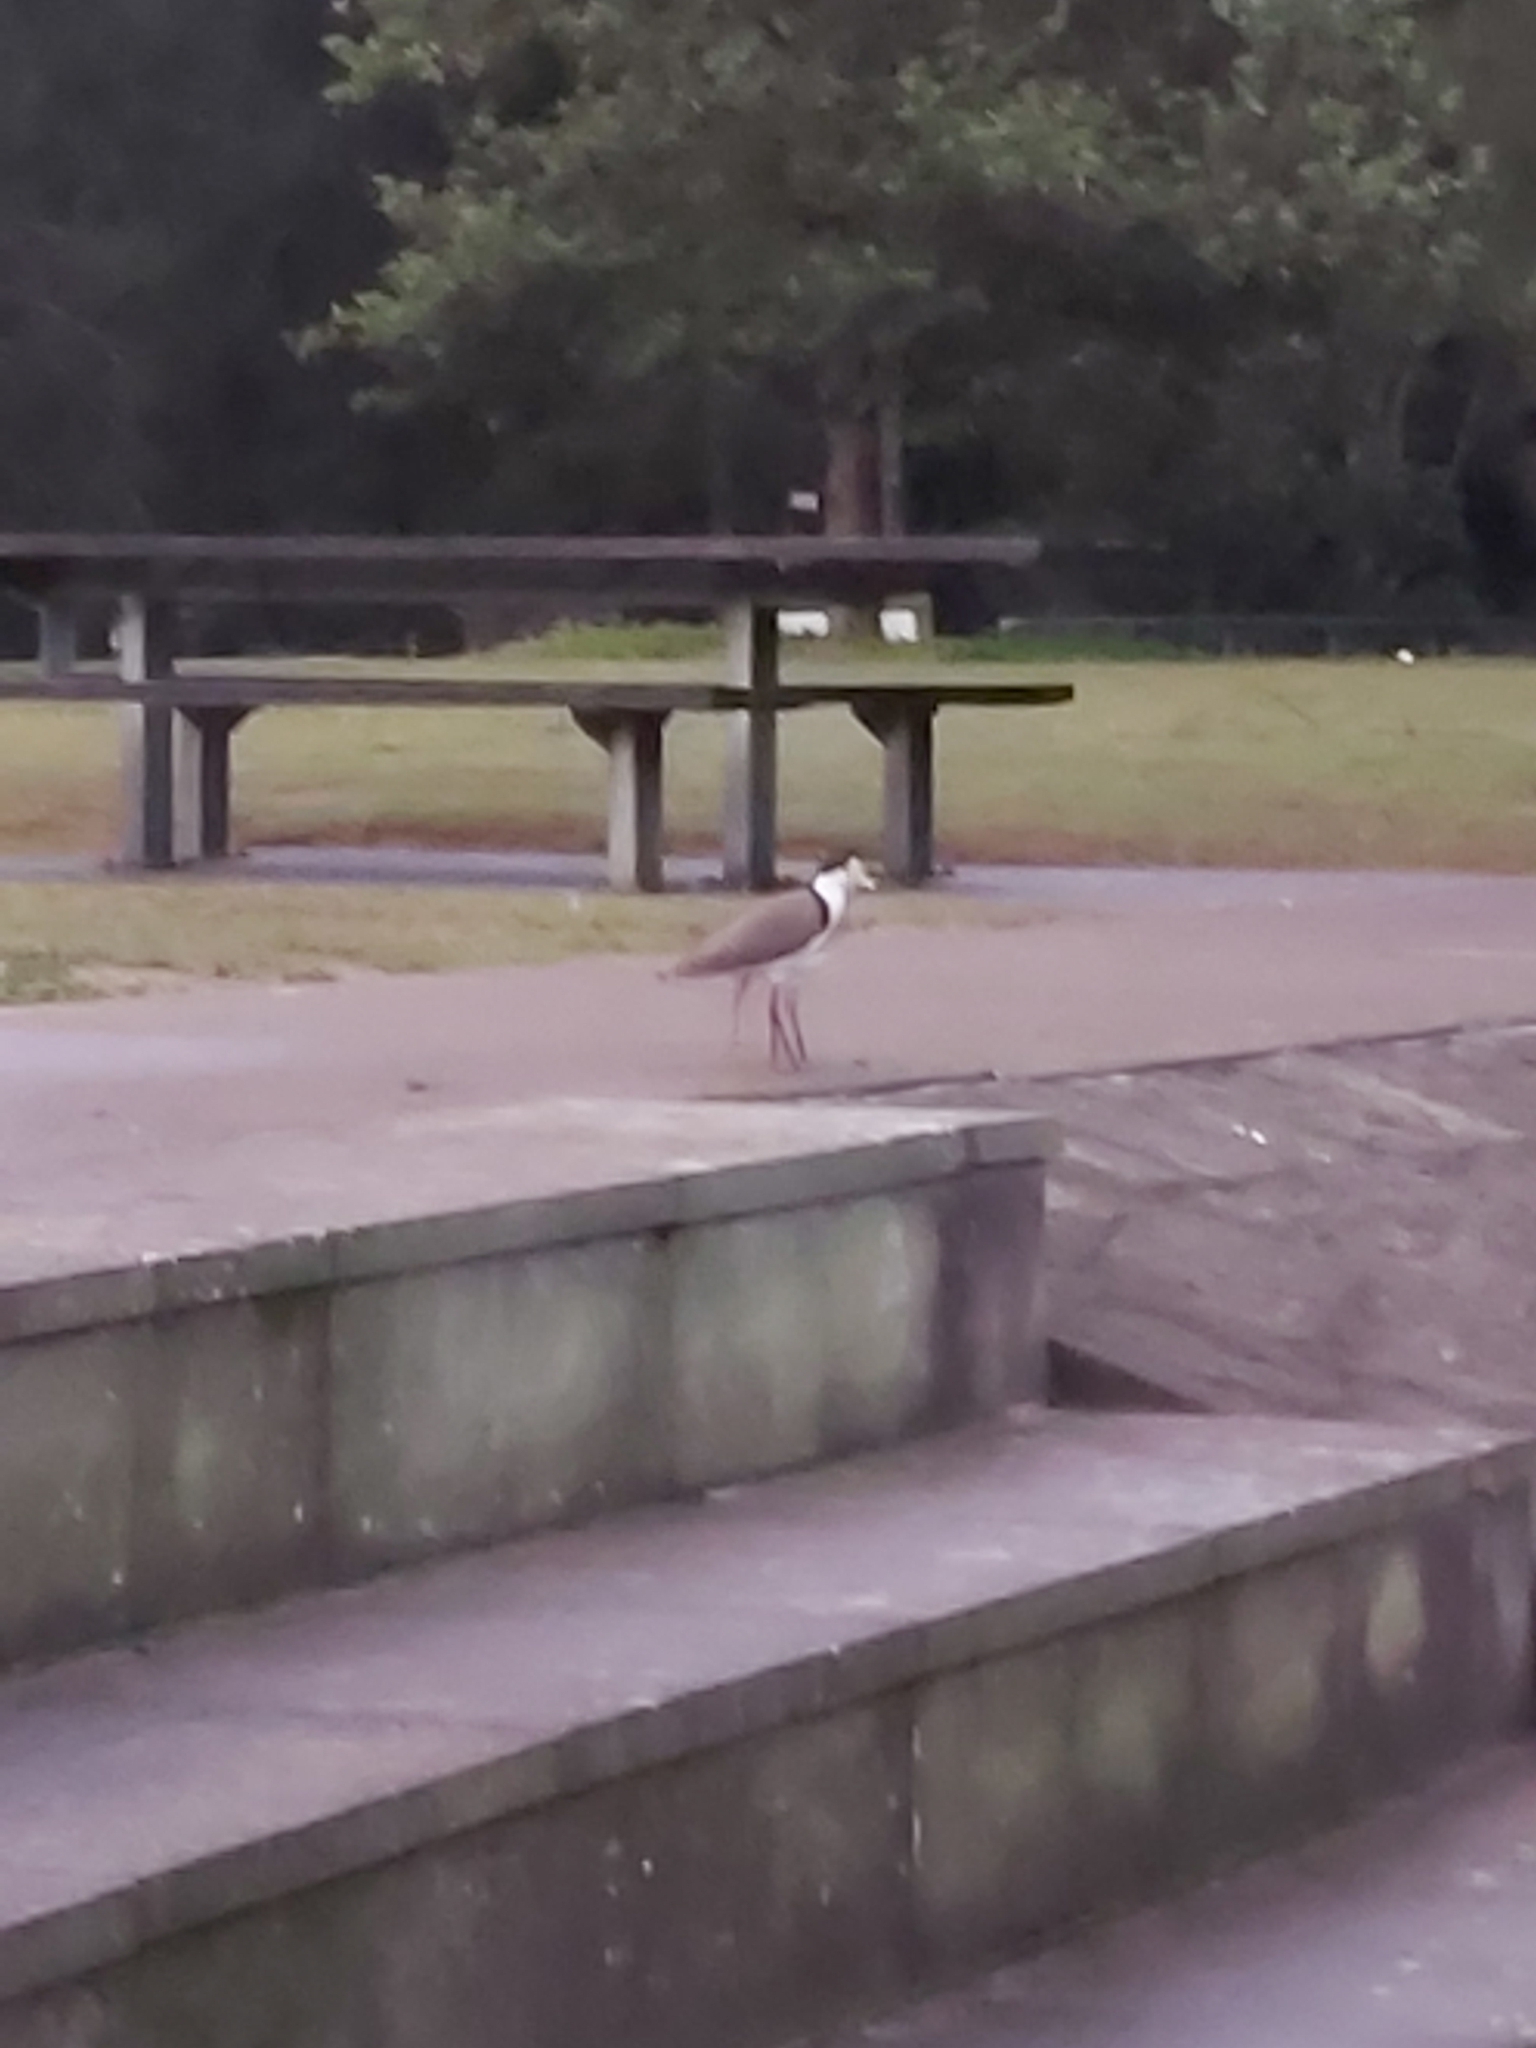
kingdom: Animalia
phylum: Chordata
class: Aves
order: Charadriiformes
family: Charadriidae
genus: Vanellus
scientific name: Vanellus miles
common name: Masked lapwing
